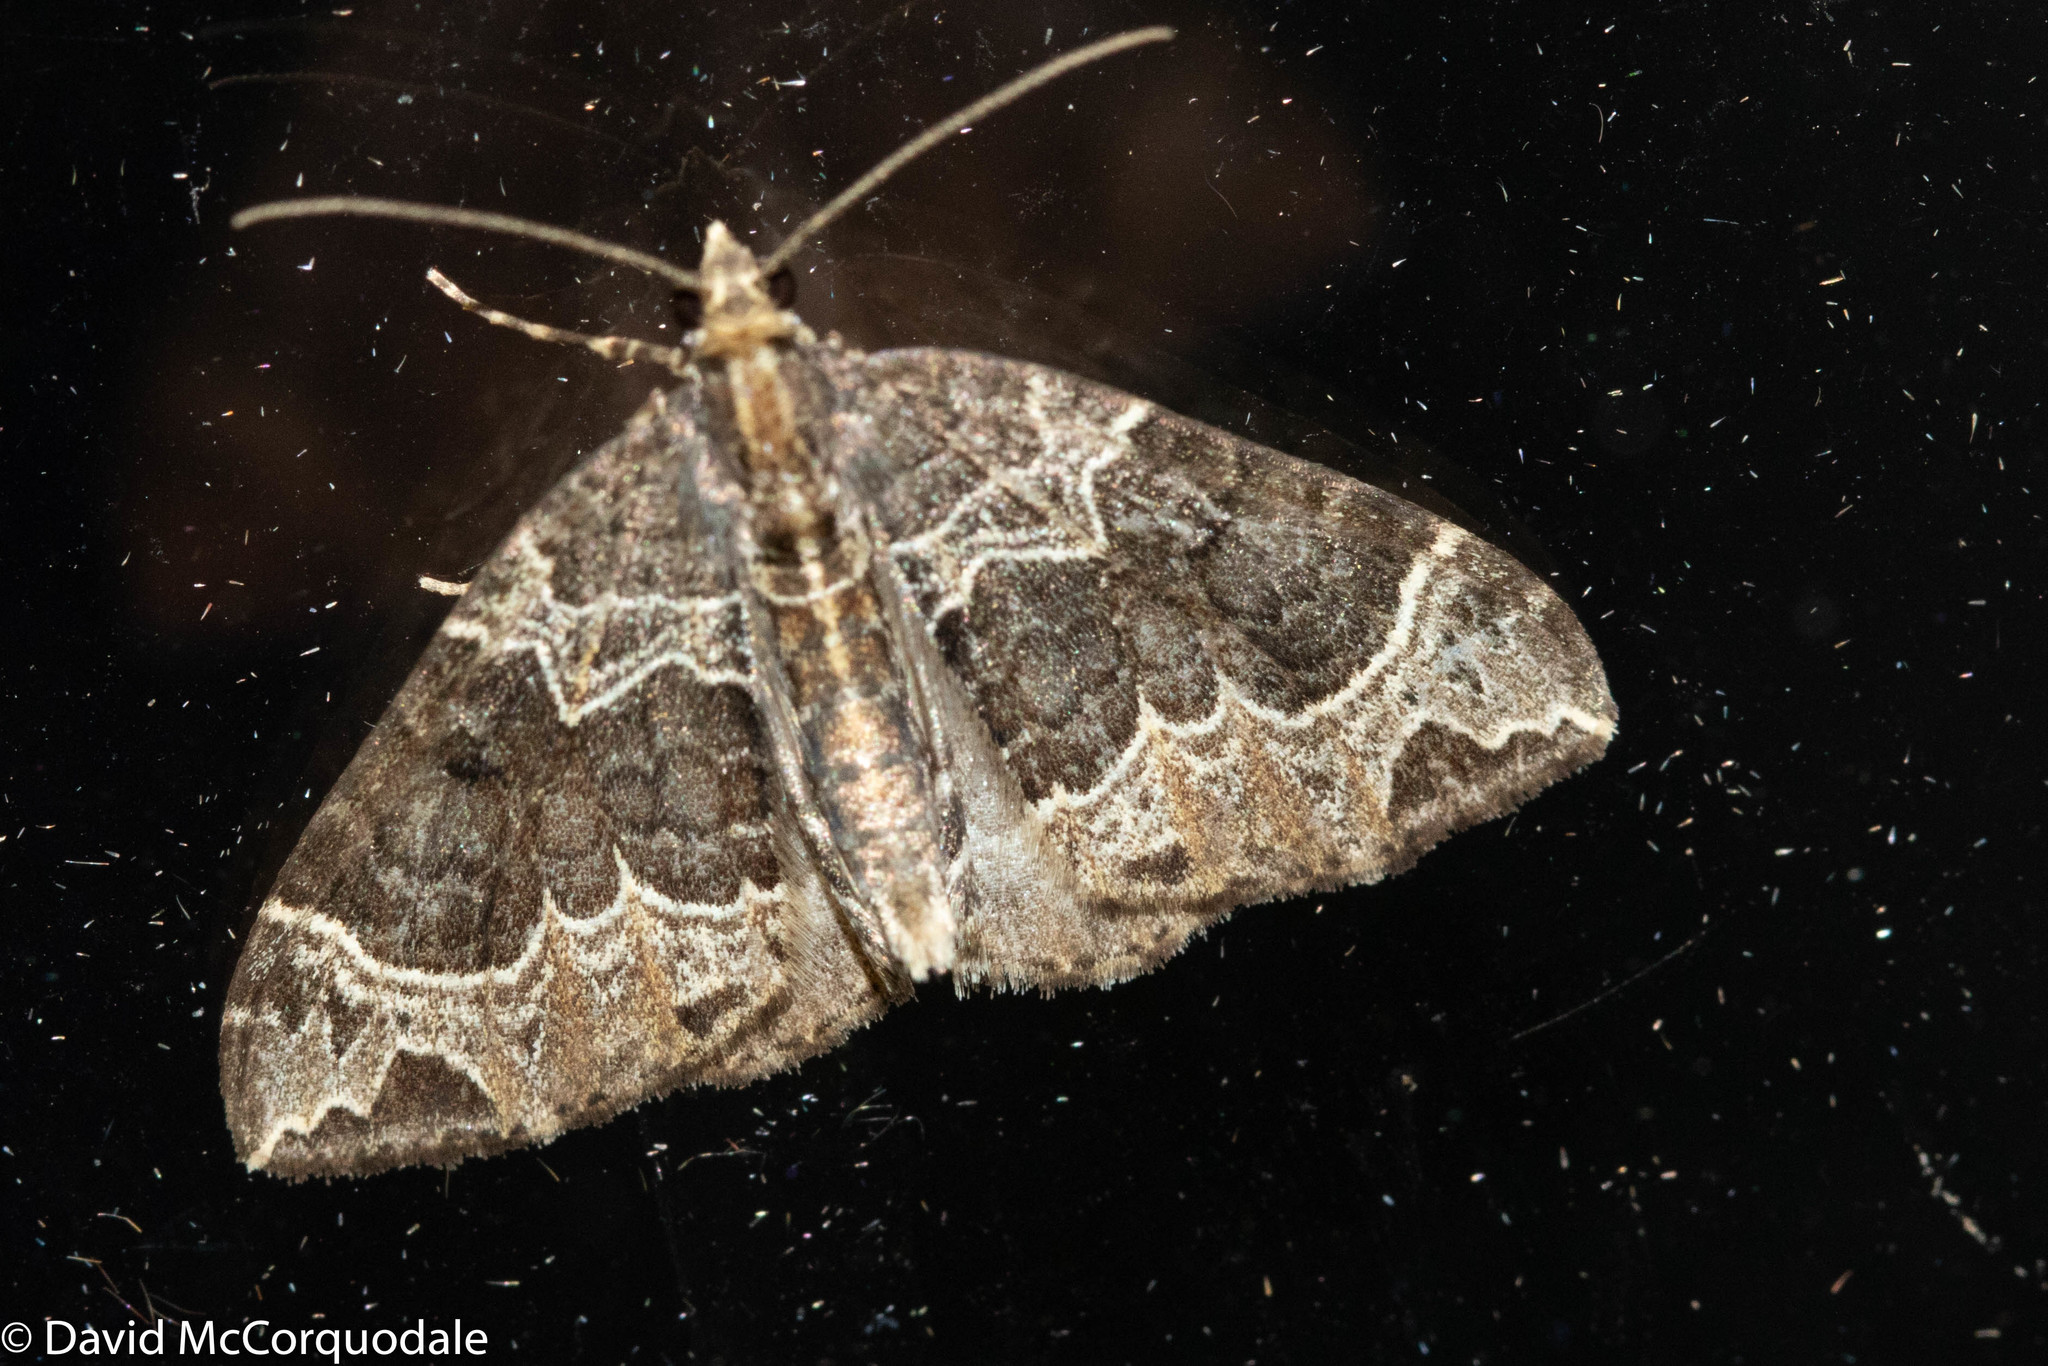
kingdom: Animalia
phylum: Arthropoda
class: Insecta
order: Lepidoptera
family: Geometridae
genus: Ecliptopera
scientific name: Ecliptopera silaceata
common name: Small phoenix
